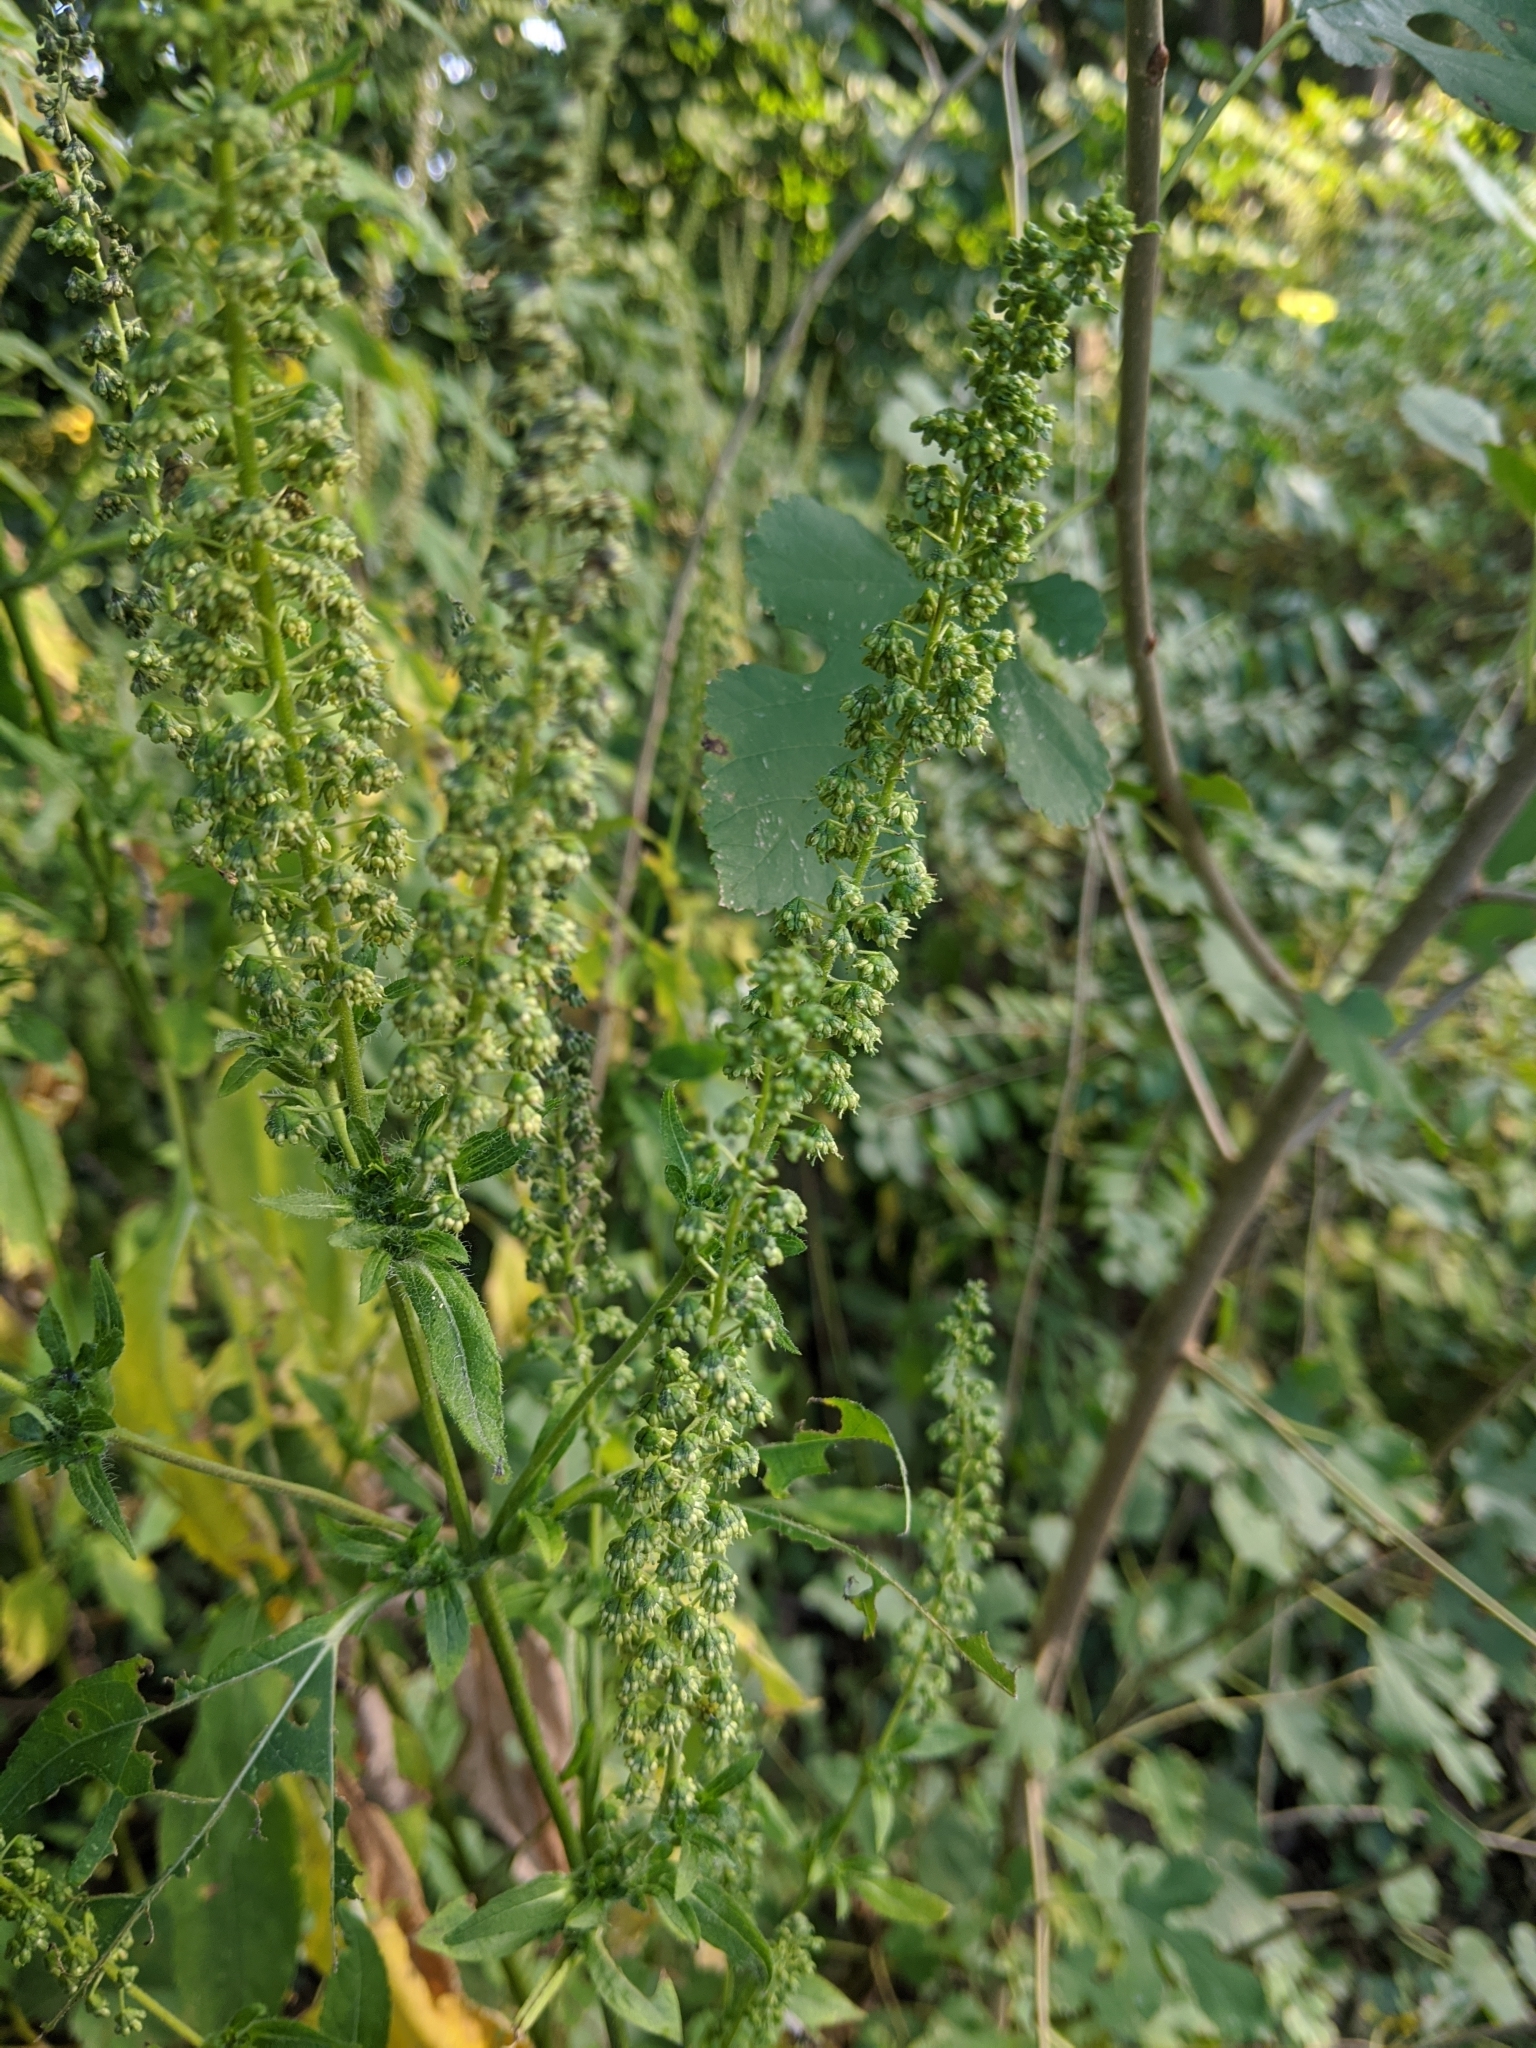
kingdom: Plantae
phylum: Tracheophyta
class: Magnoliopsida
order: Asterales
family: Asteraceae
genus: Ambrosia
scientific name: Ambrosia trifida
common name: Giant ragweed
